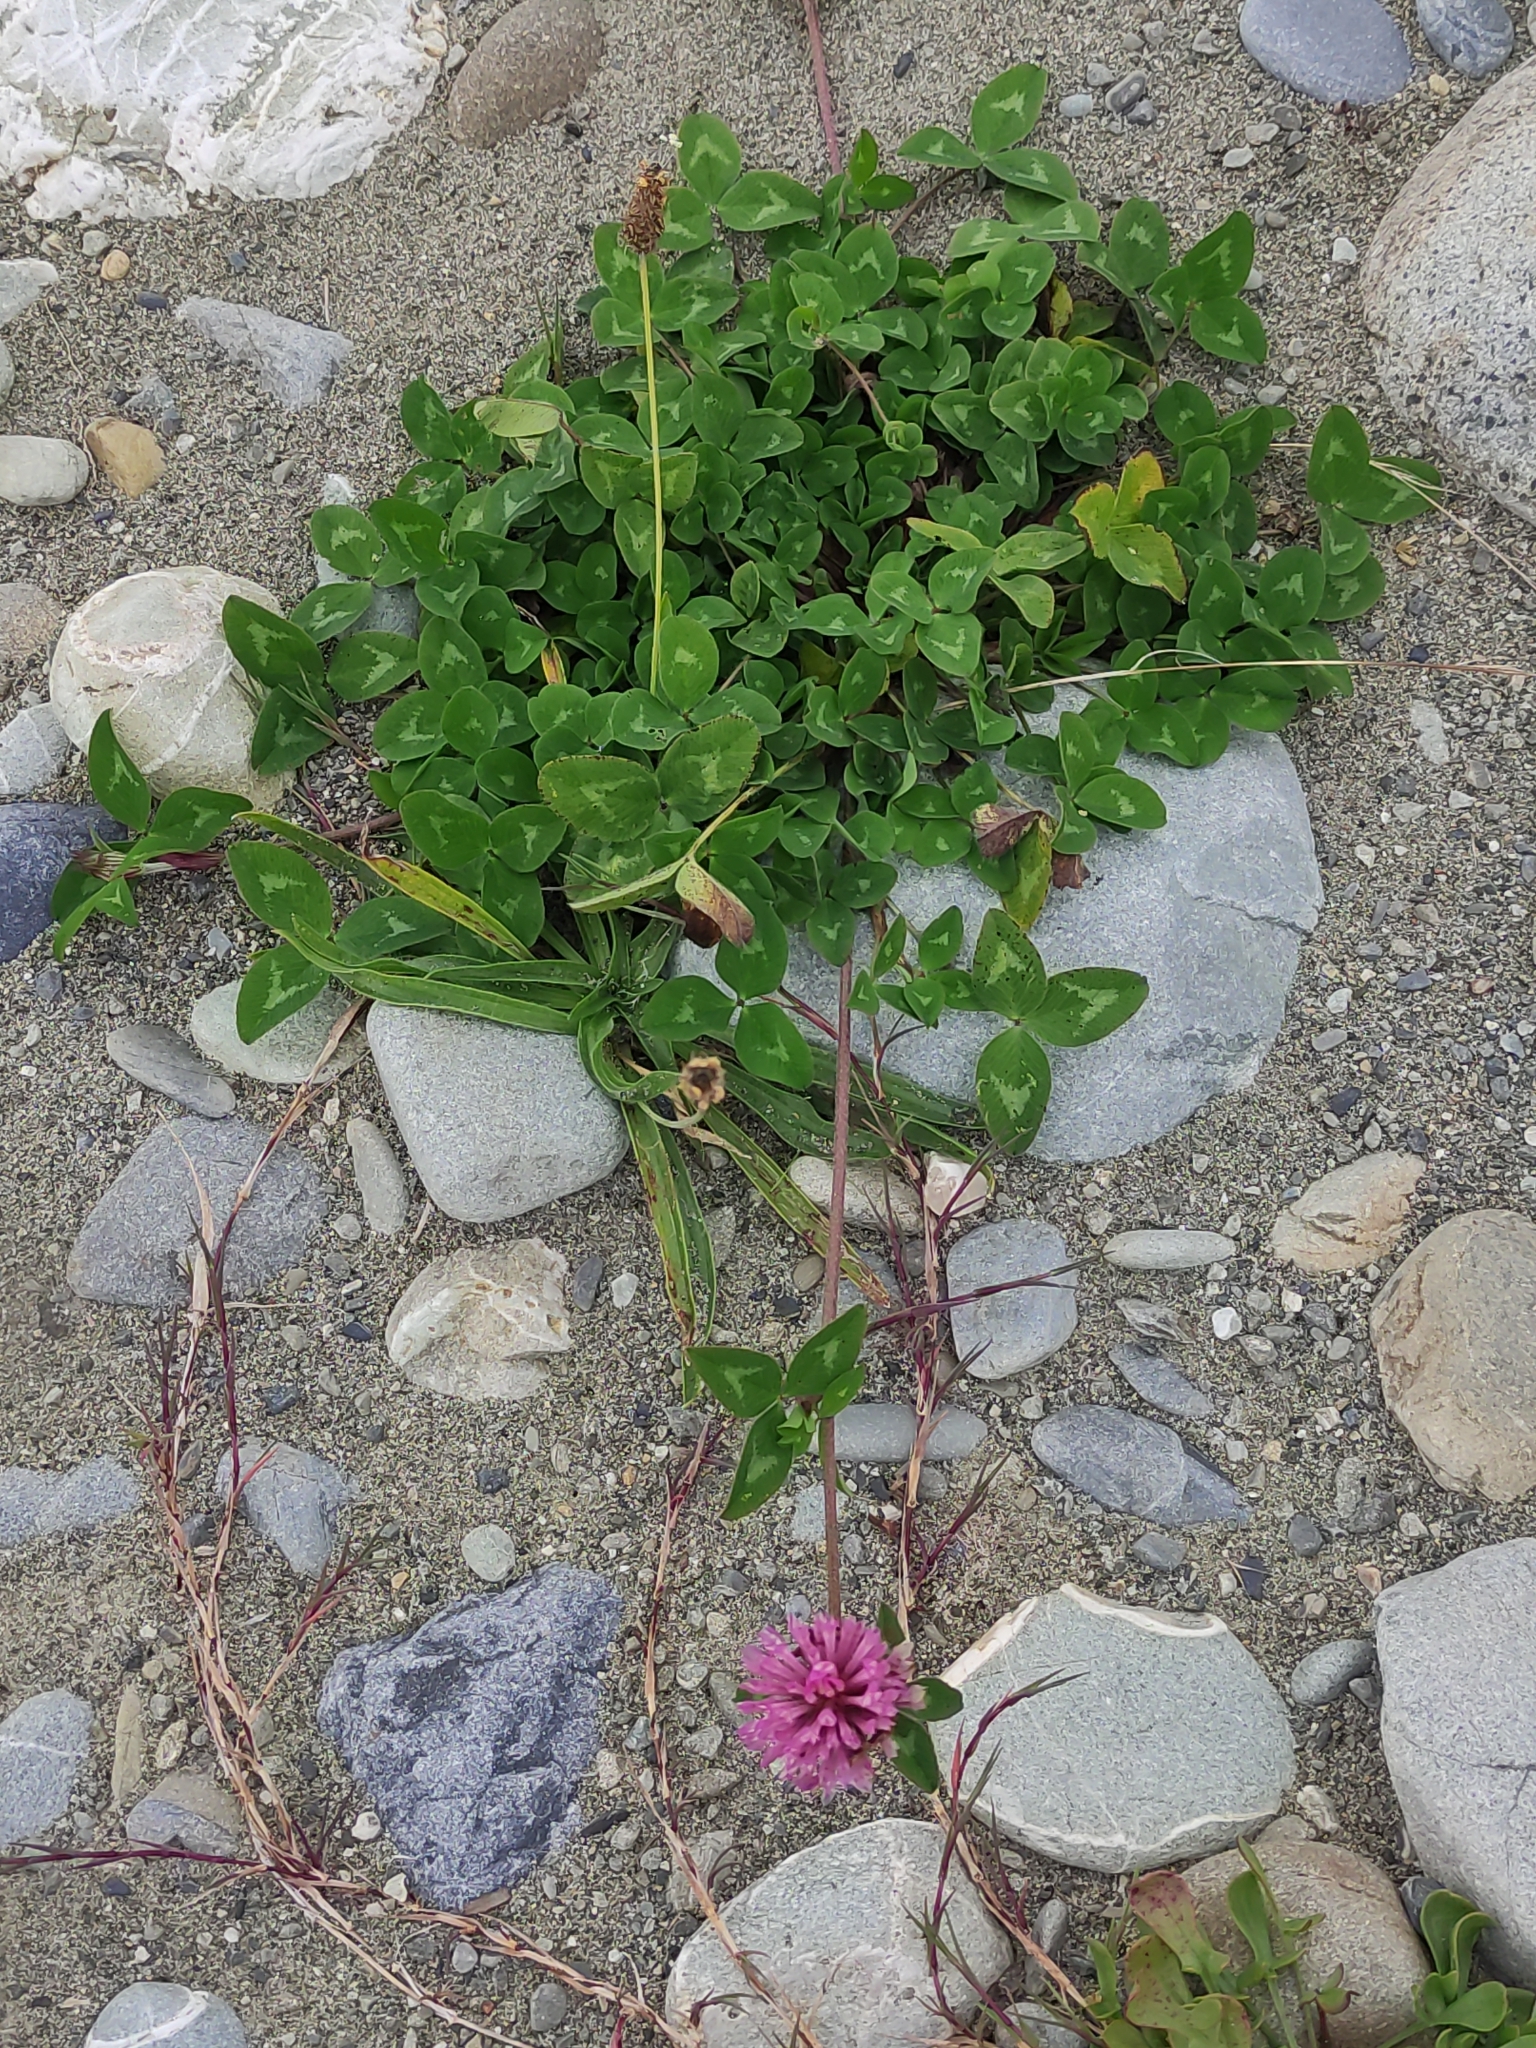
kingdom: Plantae
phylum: Tracheophyta
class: Magnoliopsida
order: Fabales
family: Fabaceae
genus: Trifolium
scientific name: Trifolium pratense
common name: Red clover
